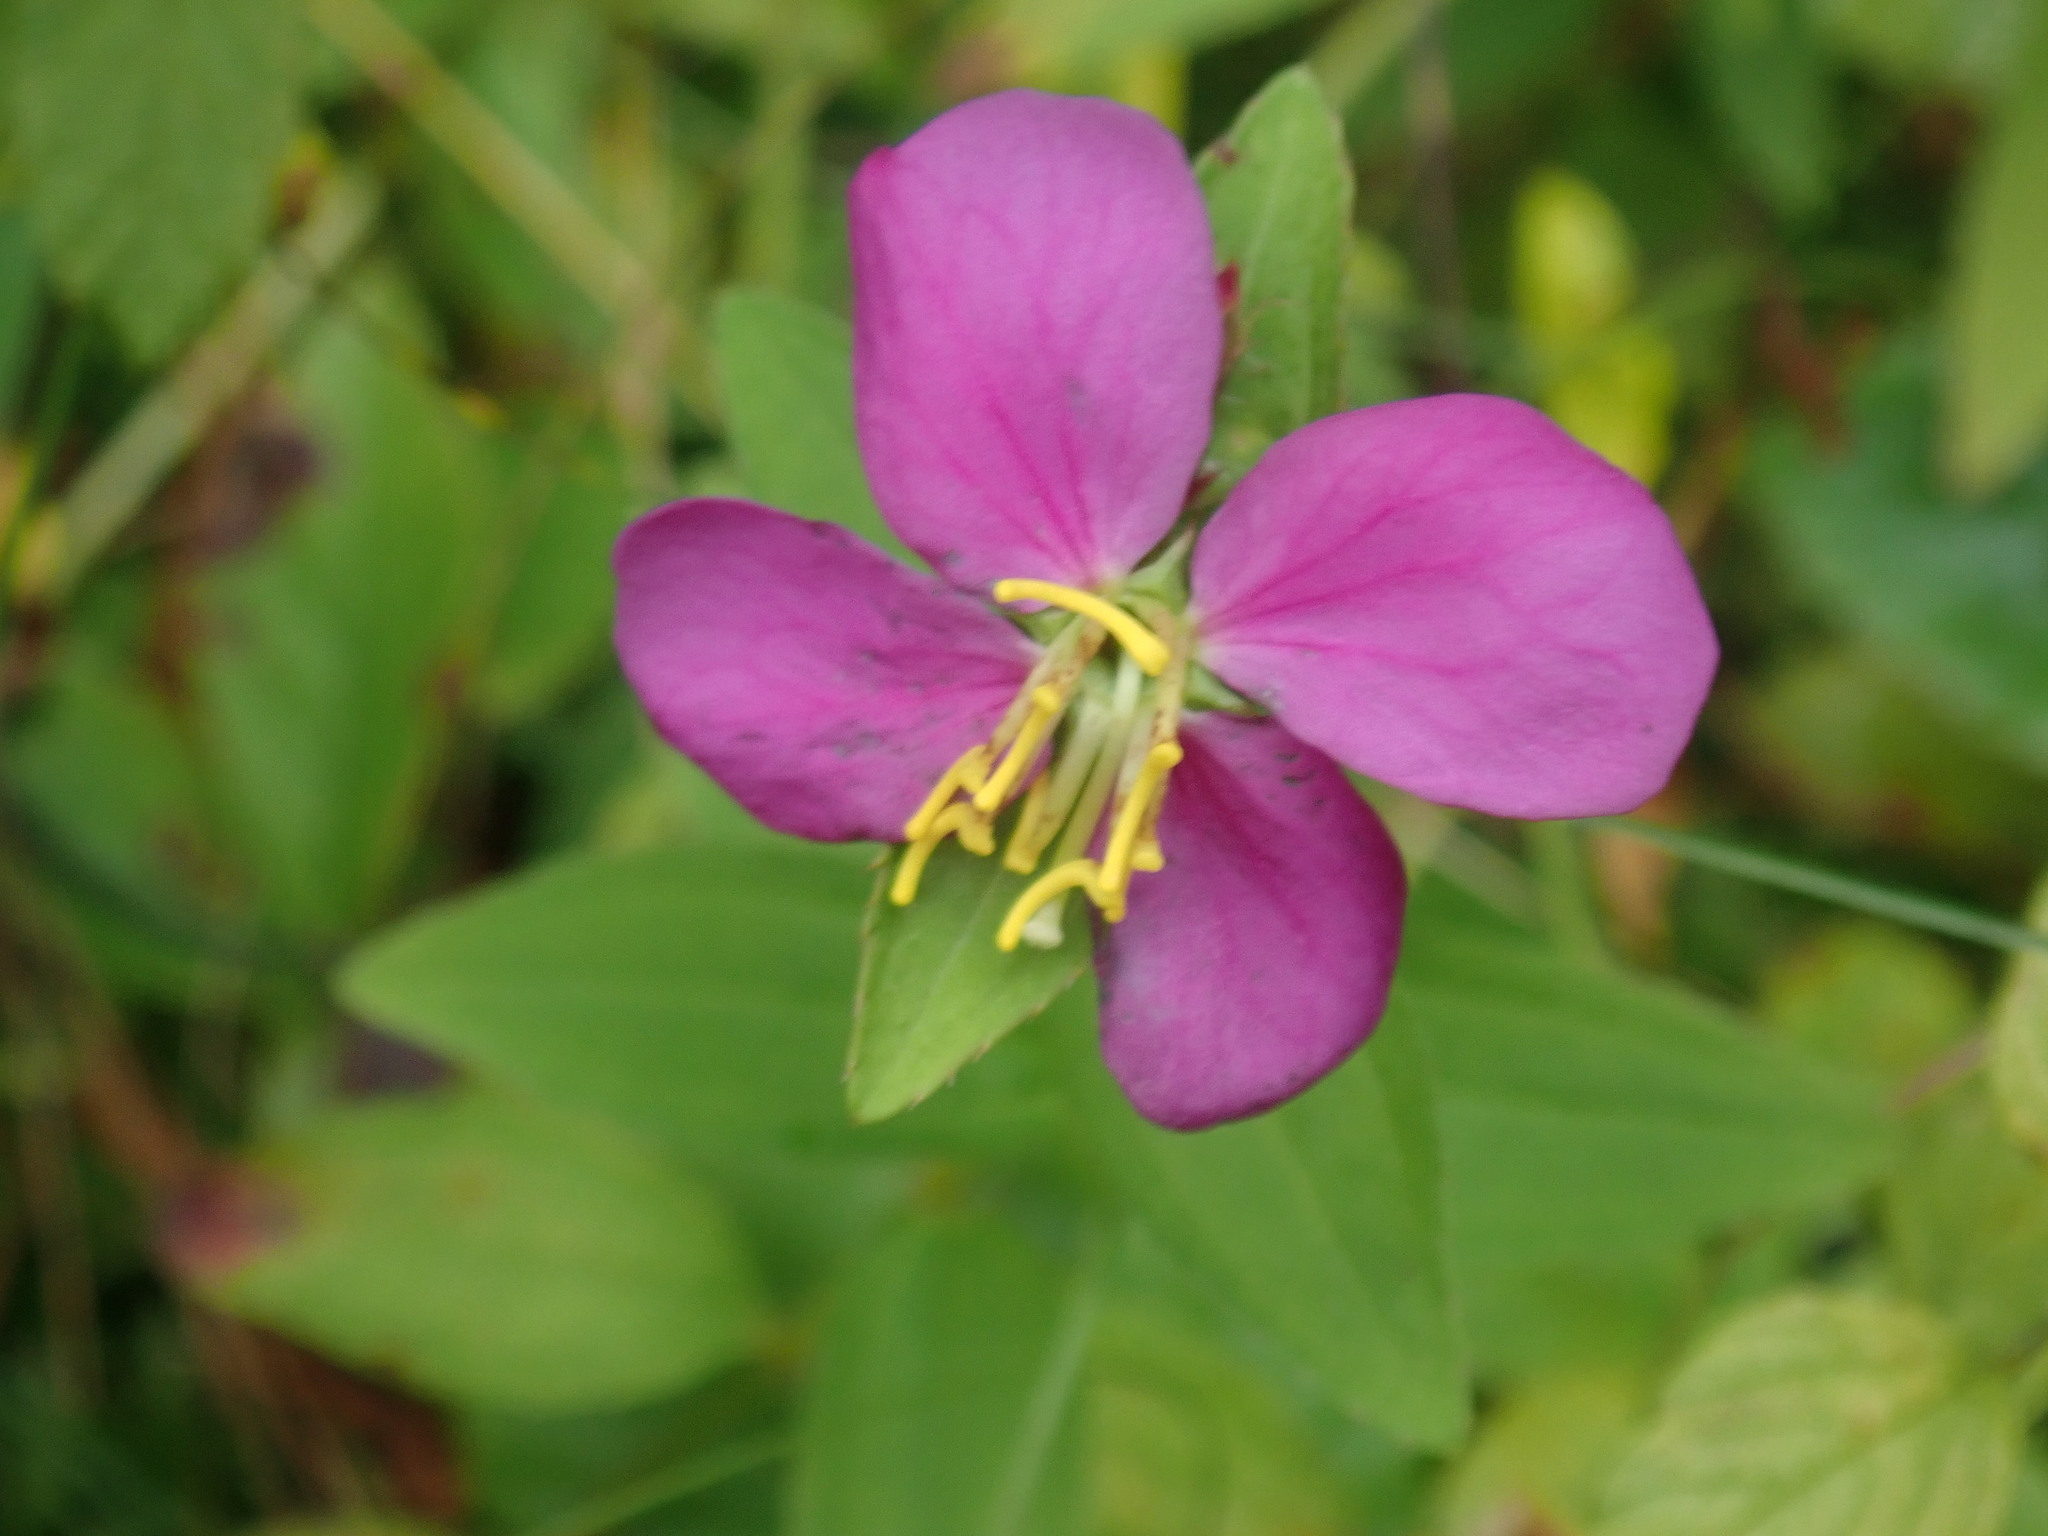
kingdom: Plantae
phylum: Tracheophyta
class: Magnoliopsida
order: Myrtales
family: Melastomataceae
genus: Rhexia
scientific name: Rhexia virginica
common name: Common meadow beauty
